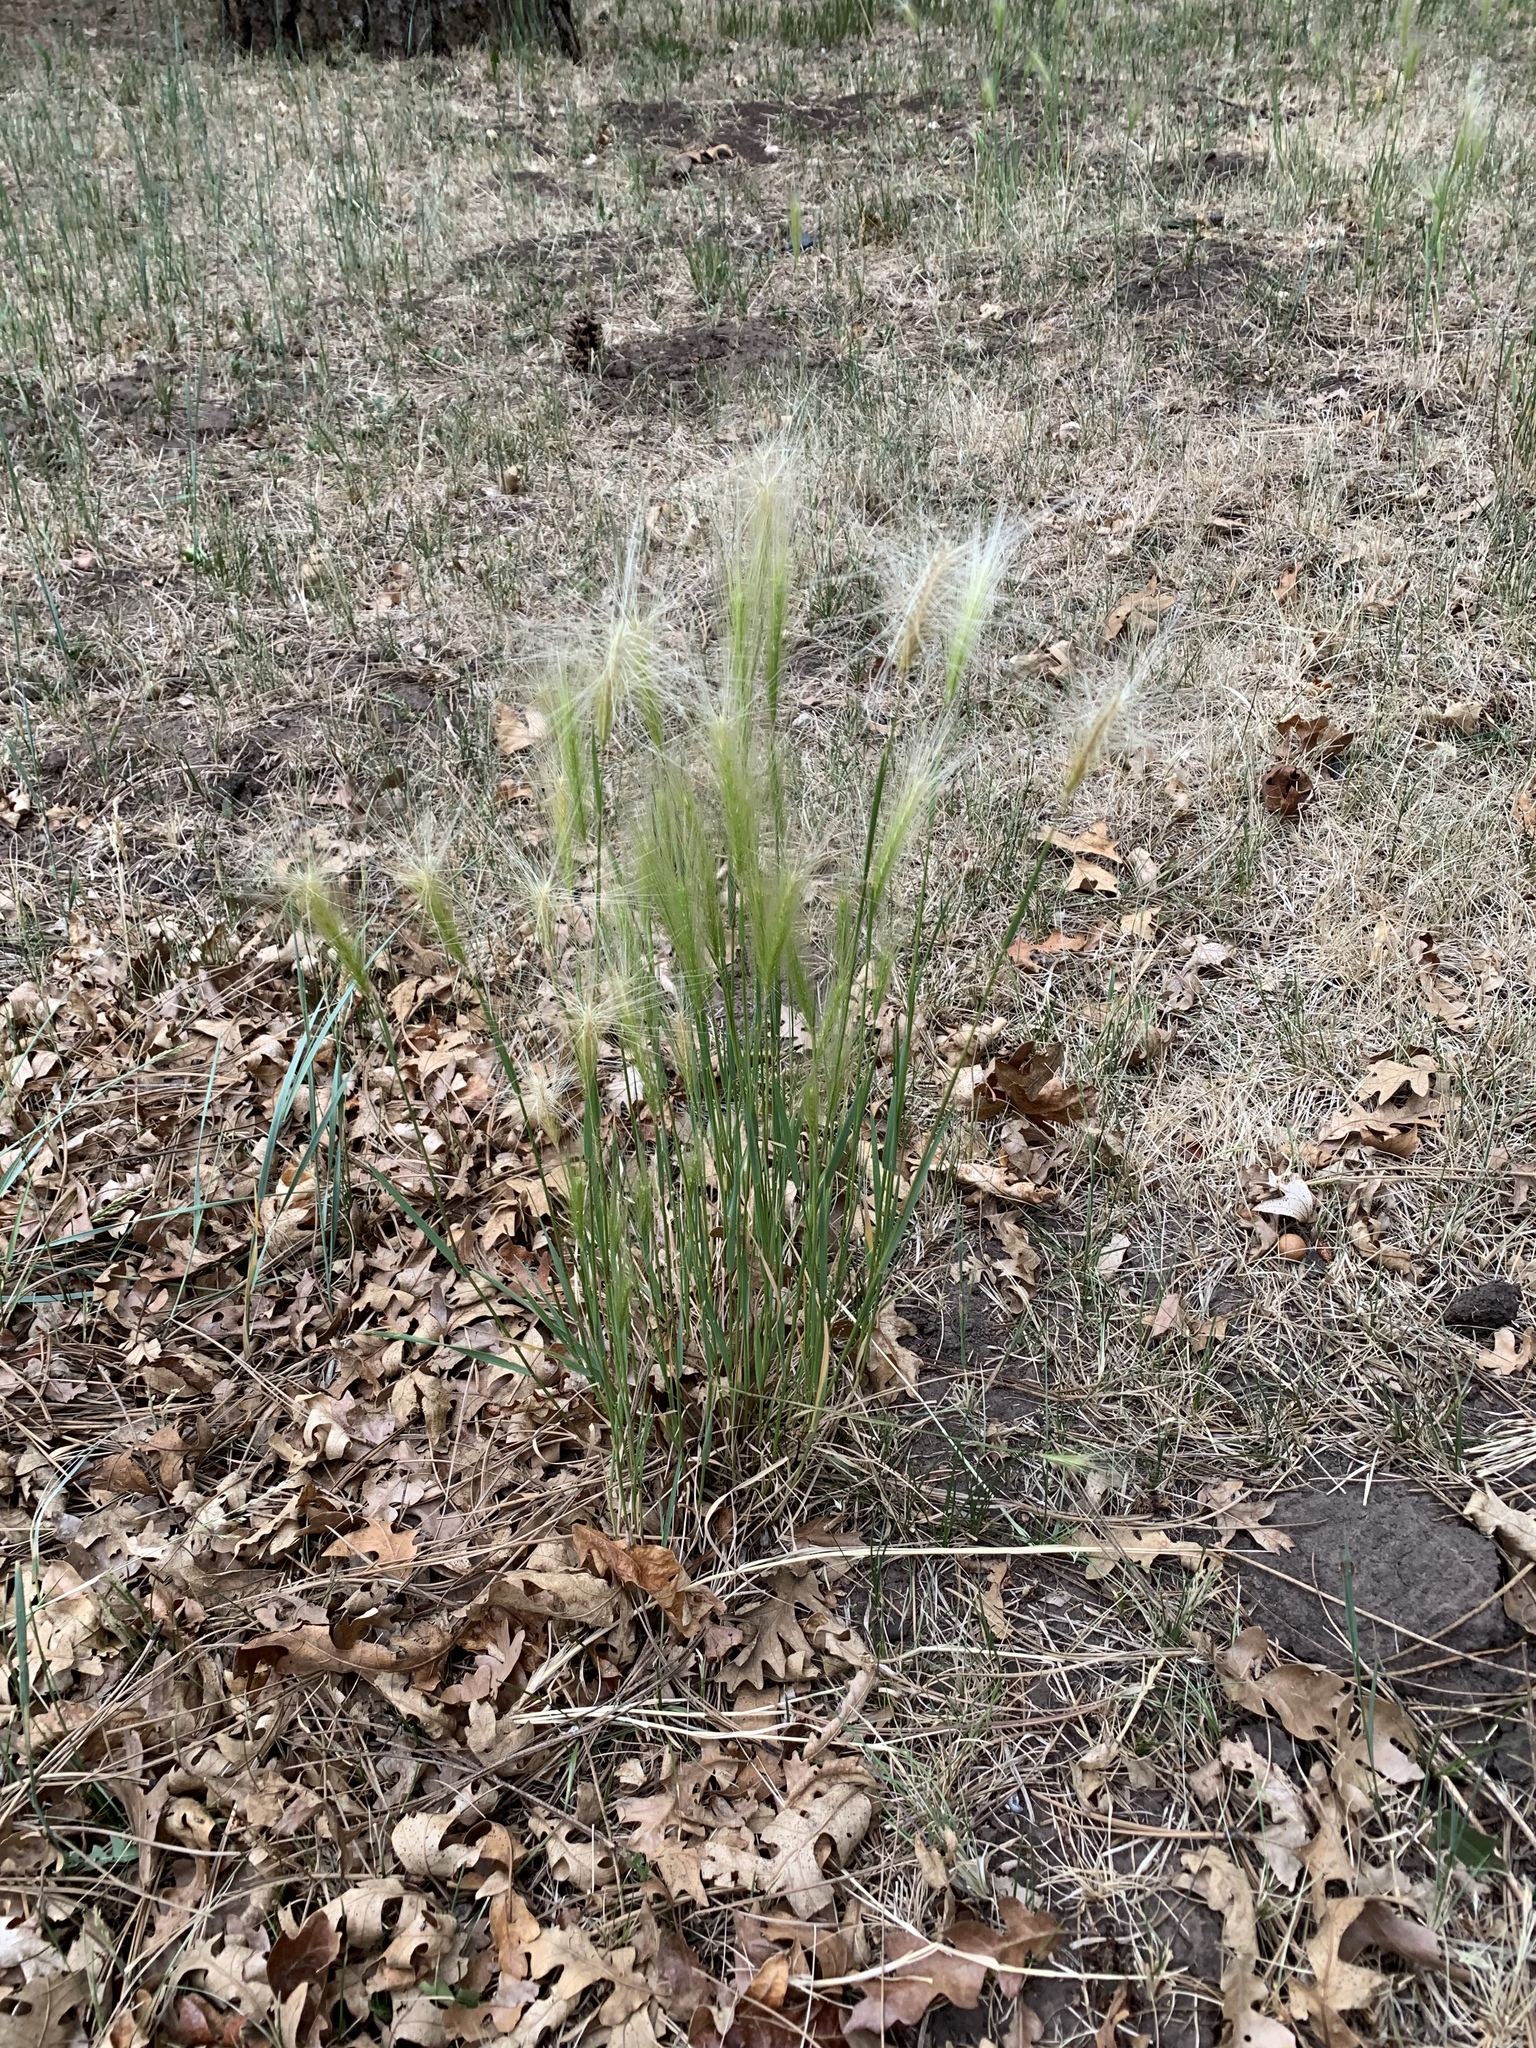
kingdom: Plantae
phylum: Tracheophyta
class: Liliopsida
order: Poales
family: Poaceae
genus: Hordeum
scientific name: Hordeum jubatum
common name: Foxtail barley
